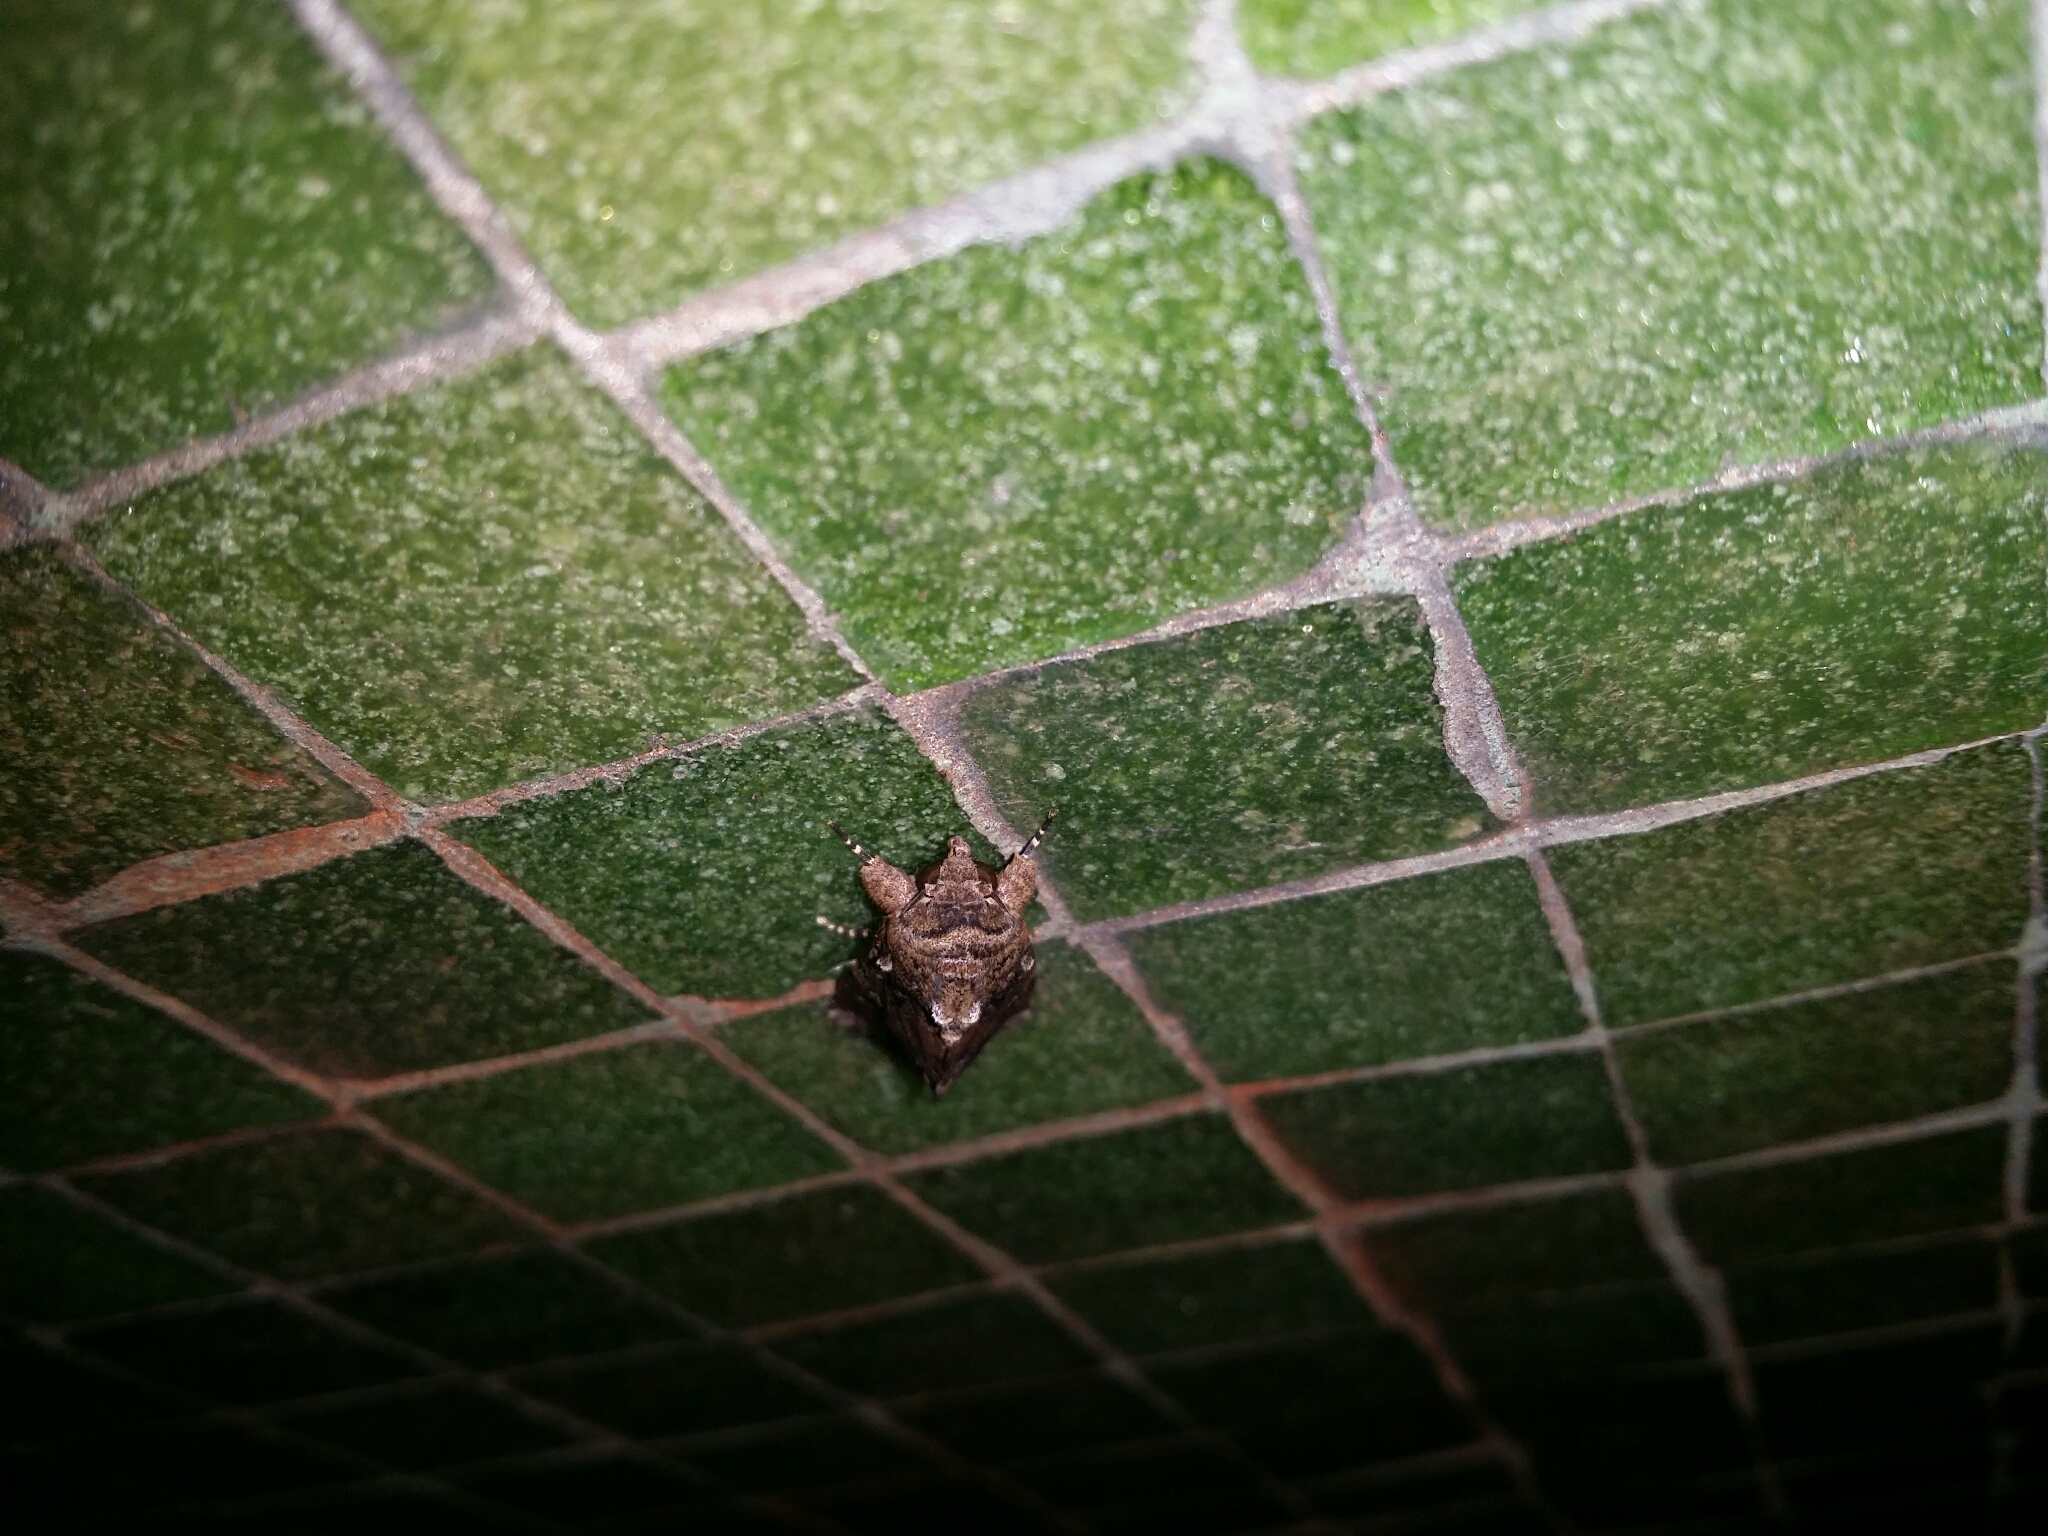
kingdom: Animalia
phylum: Arthropoda
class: Insecta
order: Lepidoptera
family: Noctuidae
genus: Spodoptera
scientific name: Spodoptera mauritia
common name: Lawn armyworm
